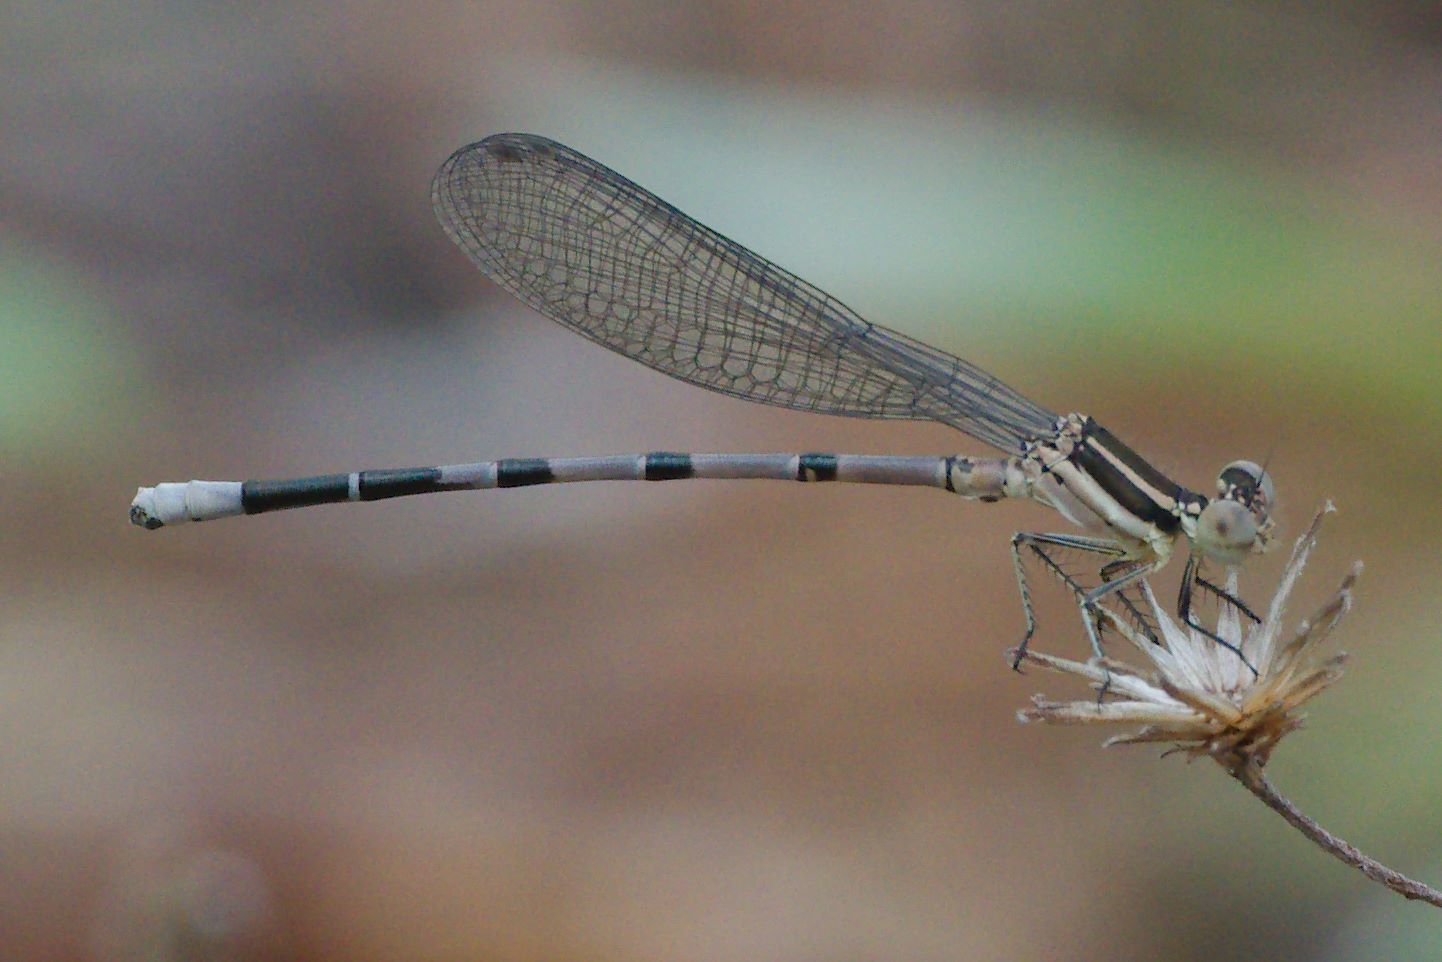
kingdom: Animalia
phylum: Arthropoda
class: Insecta
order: Odonata
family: Coenagrionidae
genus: Argia
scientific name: Argia bipunctulata
